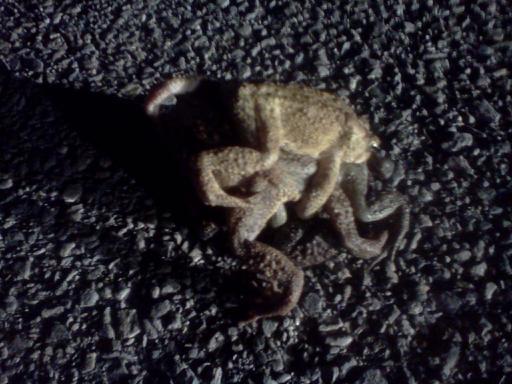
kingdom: Animalia
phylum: Chordata
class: Amphibia
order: Anura
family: Bufonidae
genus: Anaxyrus
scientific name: Anaxyrus americanus
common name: American toad
